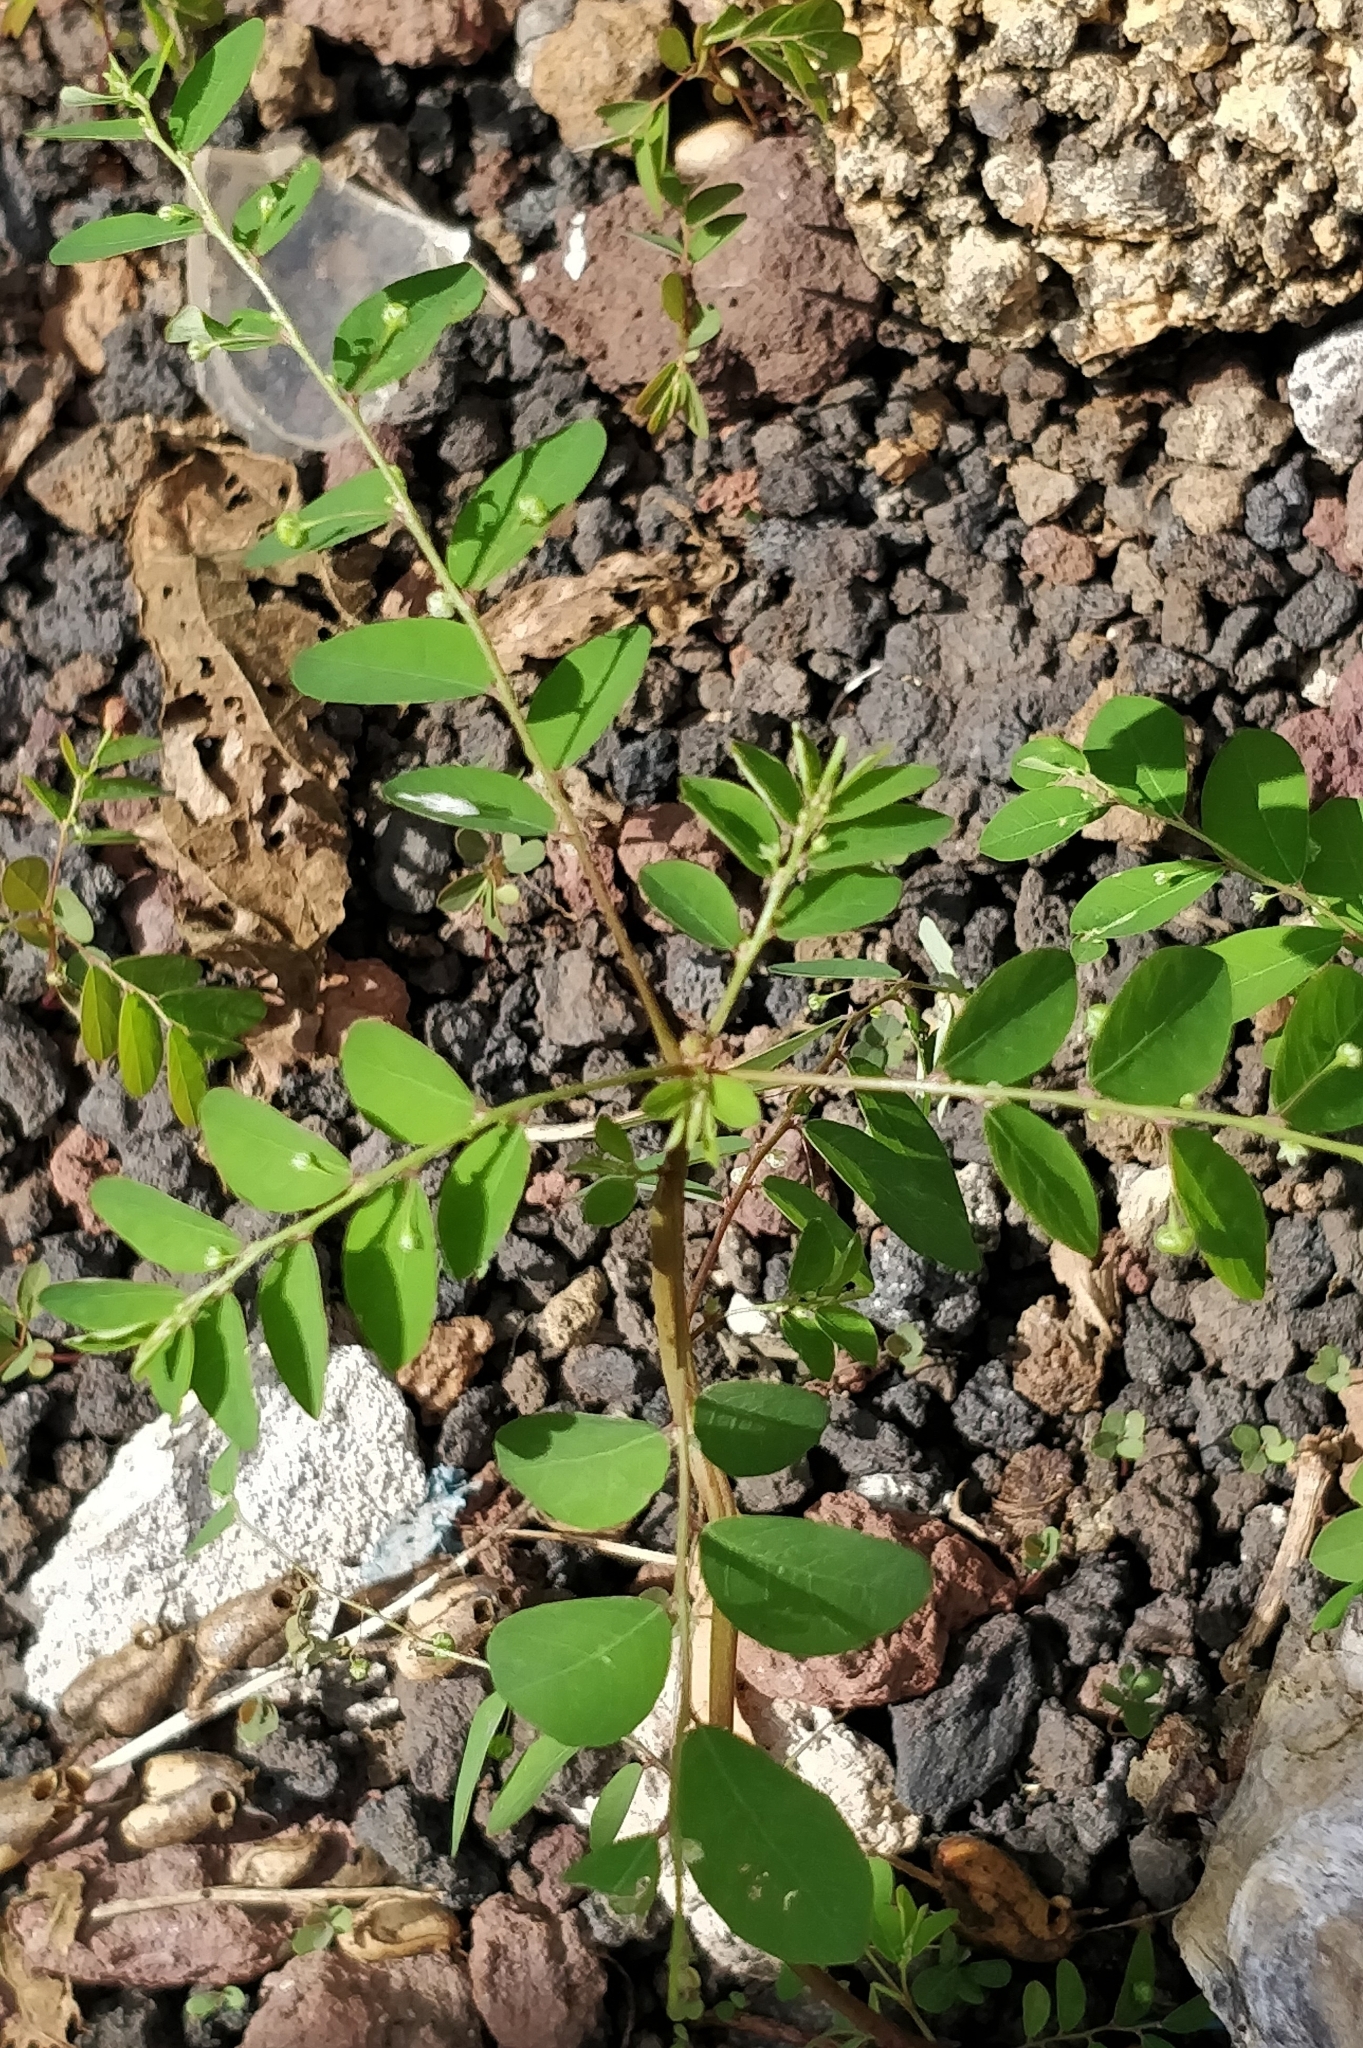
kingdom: Plantae
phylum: Tracheophyta
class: Magnoliopsida
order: Malpighiales
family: Phyllanthaceae
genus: Phyllanthus
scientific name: Phyllanthus tenellus
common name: Mascarene island leaf-flower
